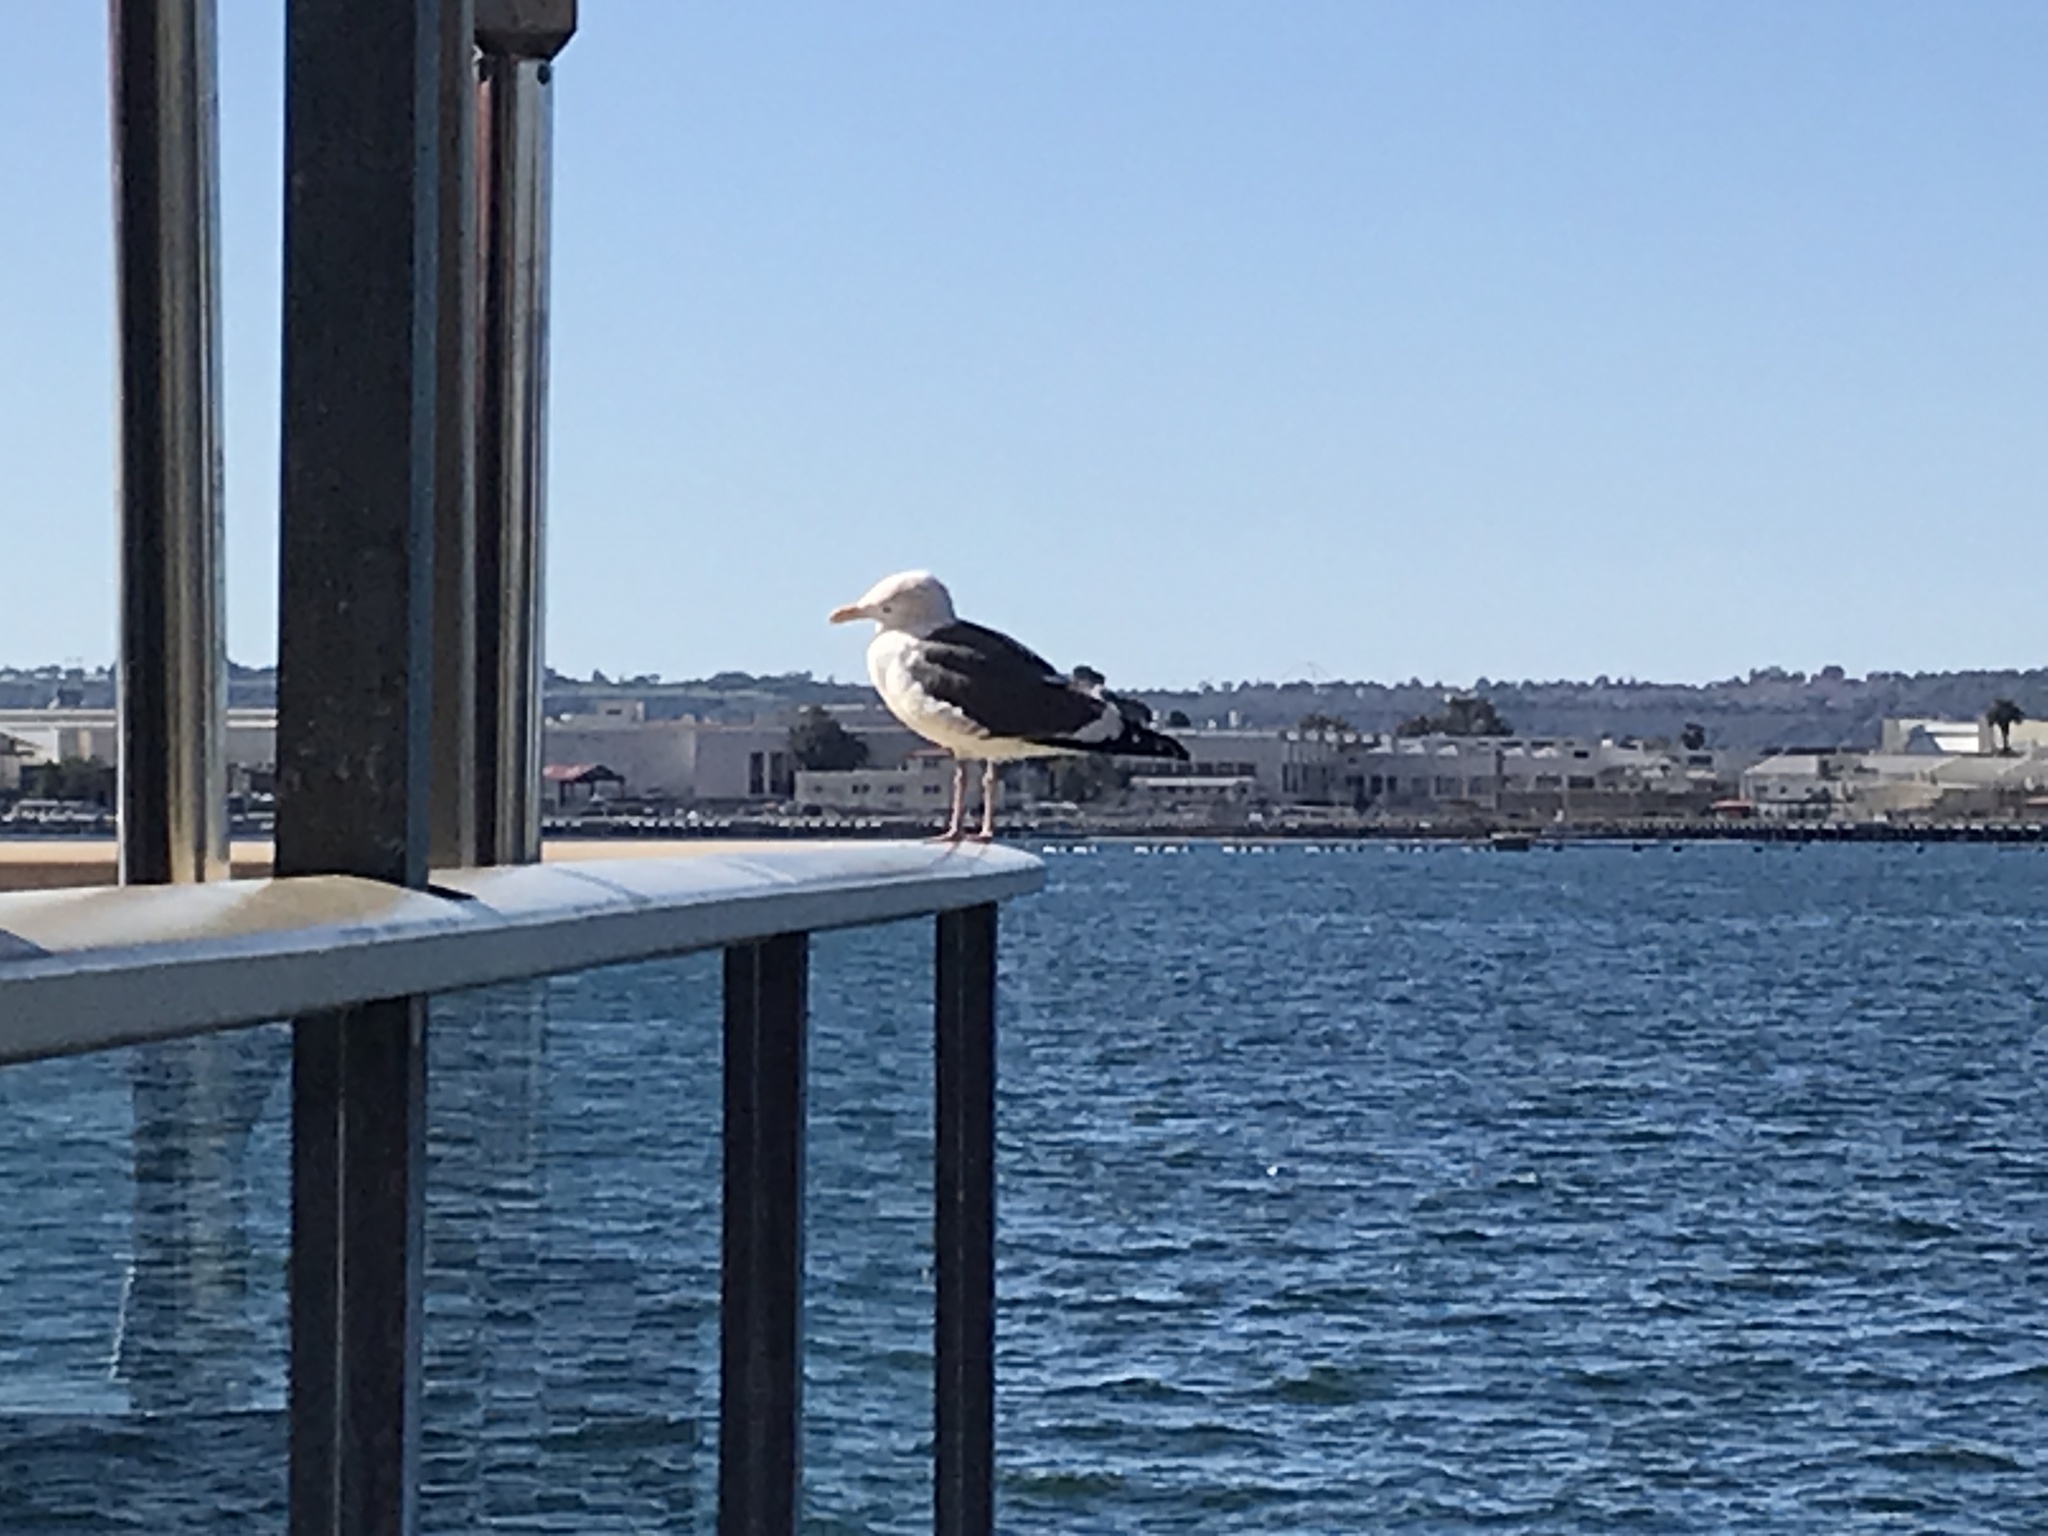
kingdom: Animalia
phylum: Chordata
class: Aves
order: Charadriiformes
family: Laridae
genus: Larus
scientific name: Larus occidentalis
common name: Western gull
